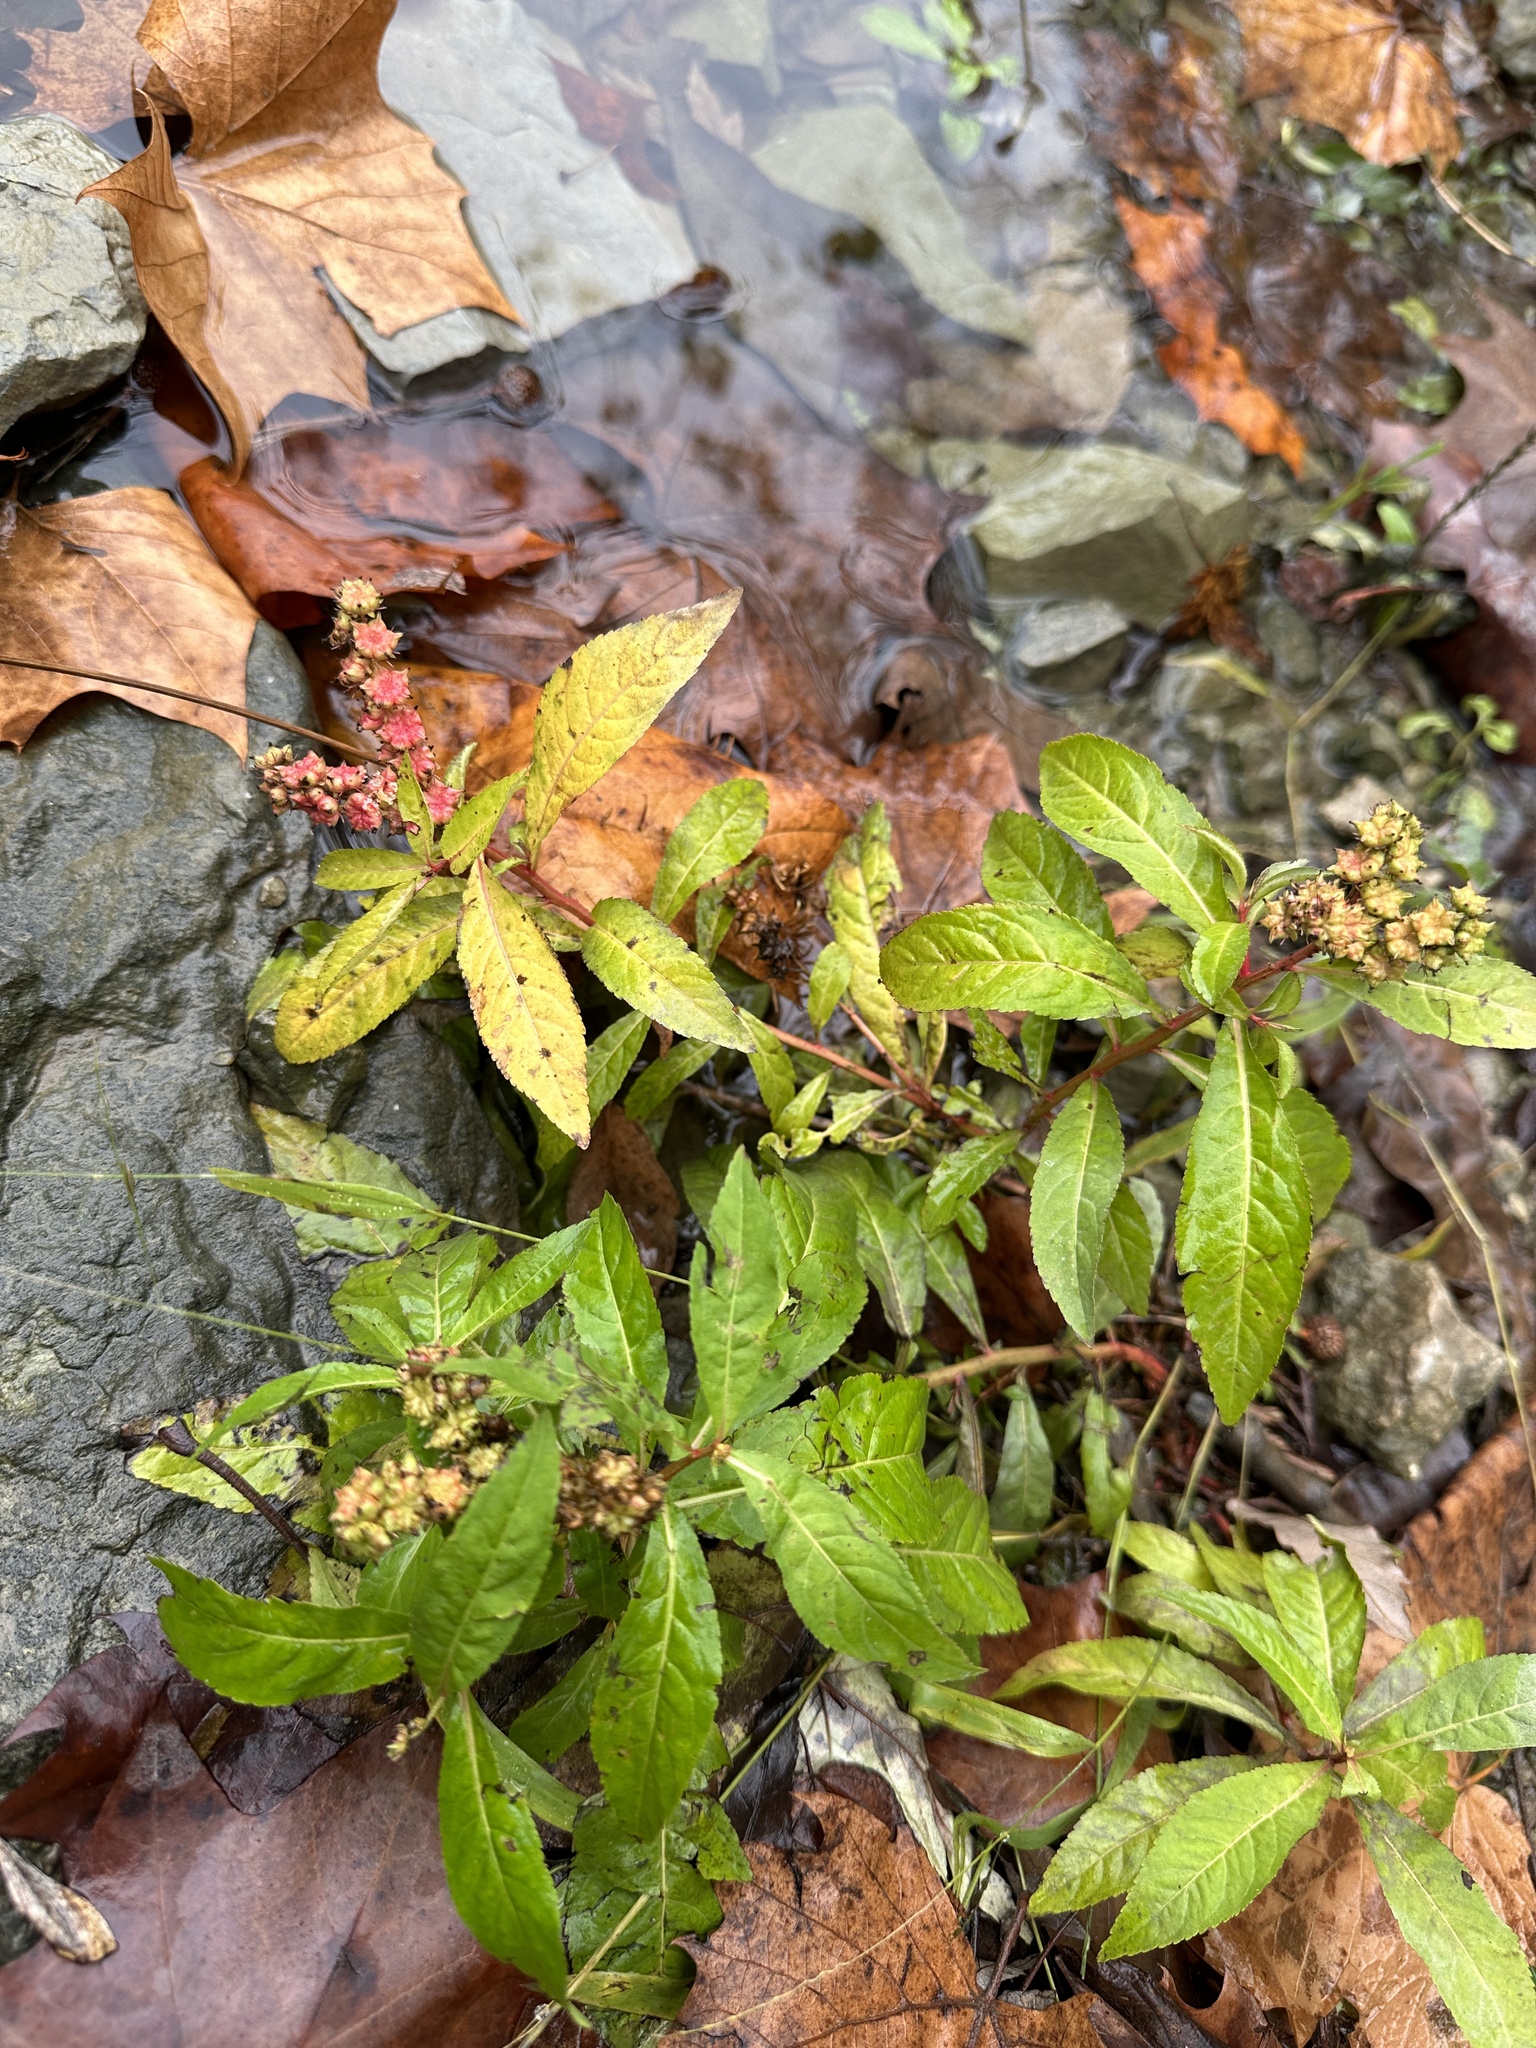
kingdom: Plantae
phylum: Tracheophyta
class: Magnoliopsida
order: Saxifragales
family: Penthoraceae
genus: Penthorum
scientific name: Penthorum sedoides
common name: Ditch stonecrop
